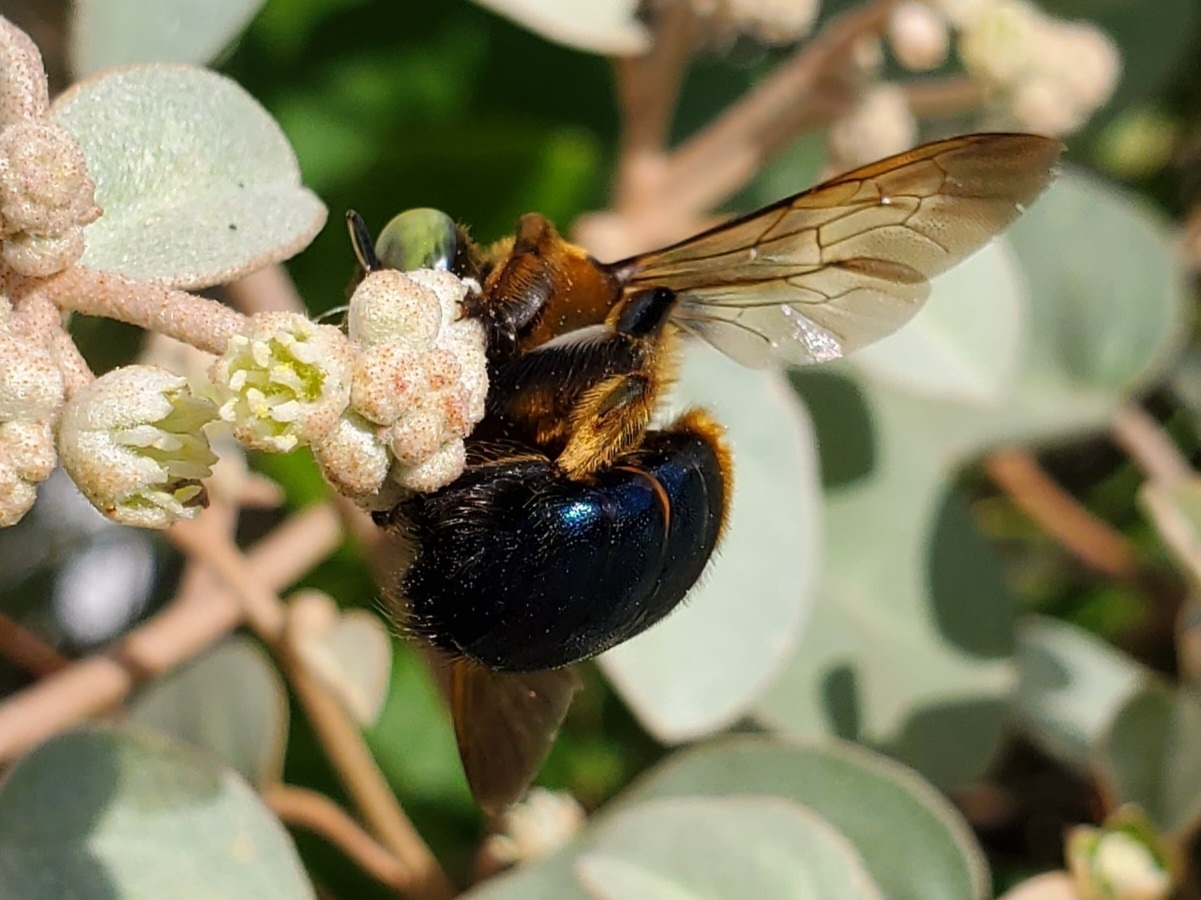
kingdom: Animalia
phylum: Arthropoda
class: Insecta
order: Hymenoptera
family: Apidae
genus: Xylocopa
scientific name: Xylocopa micans
